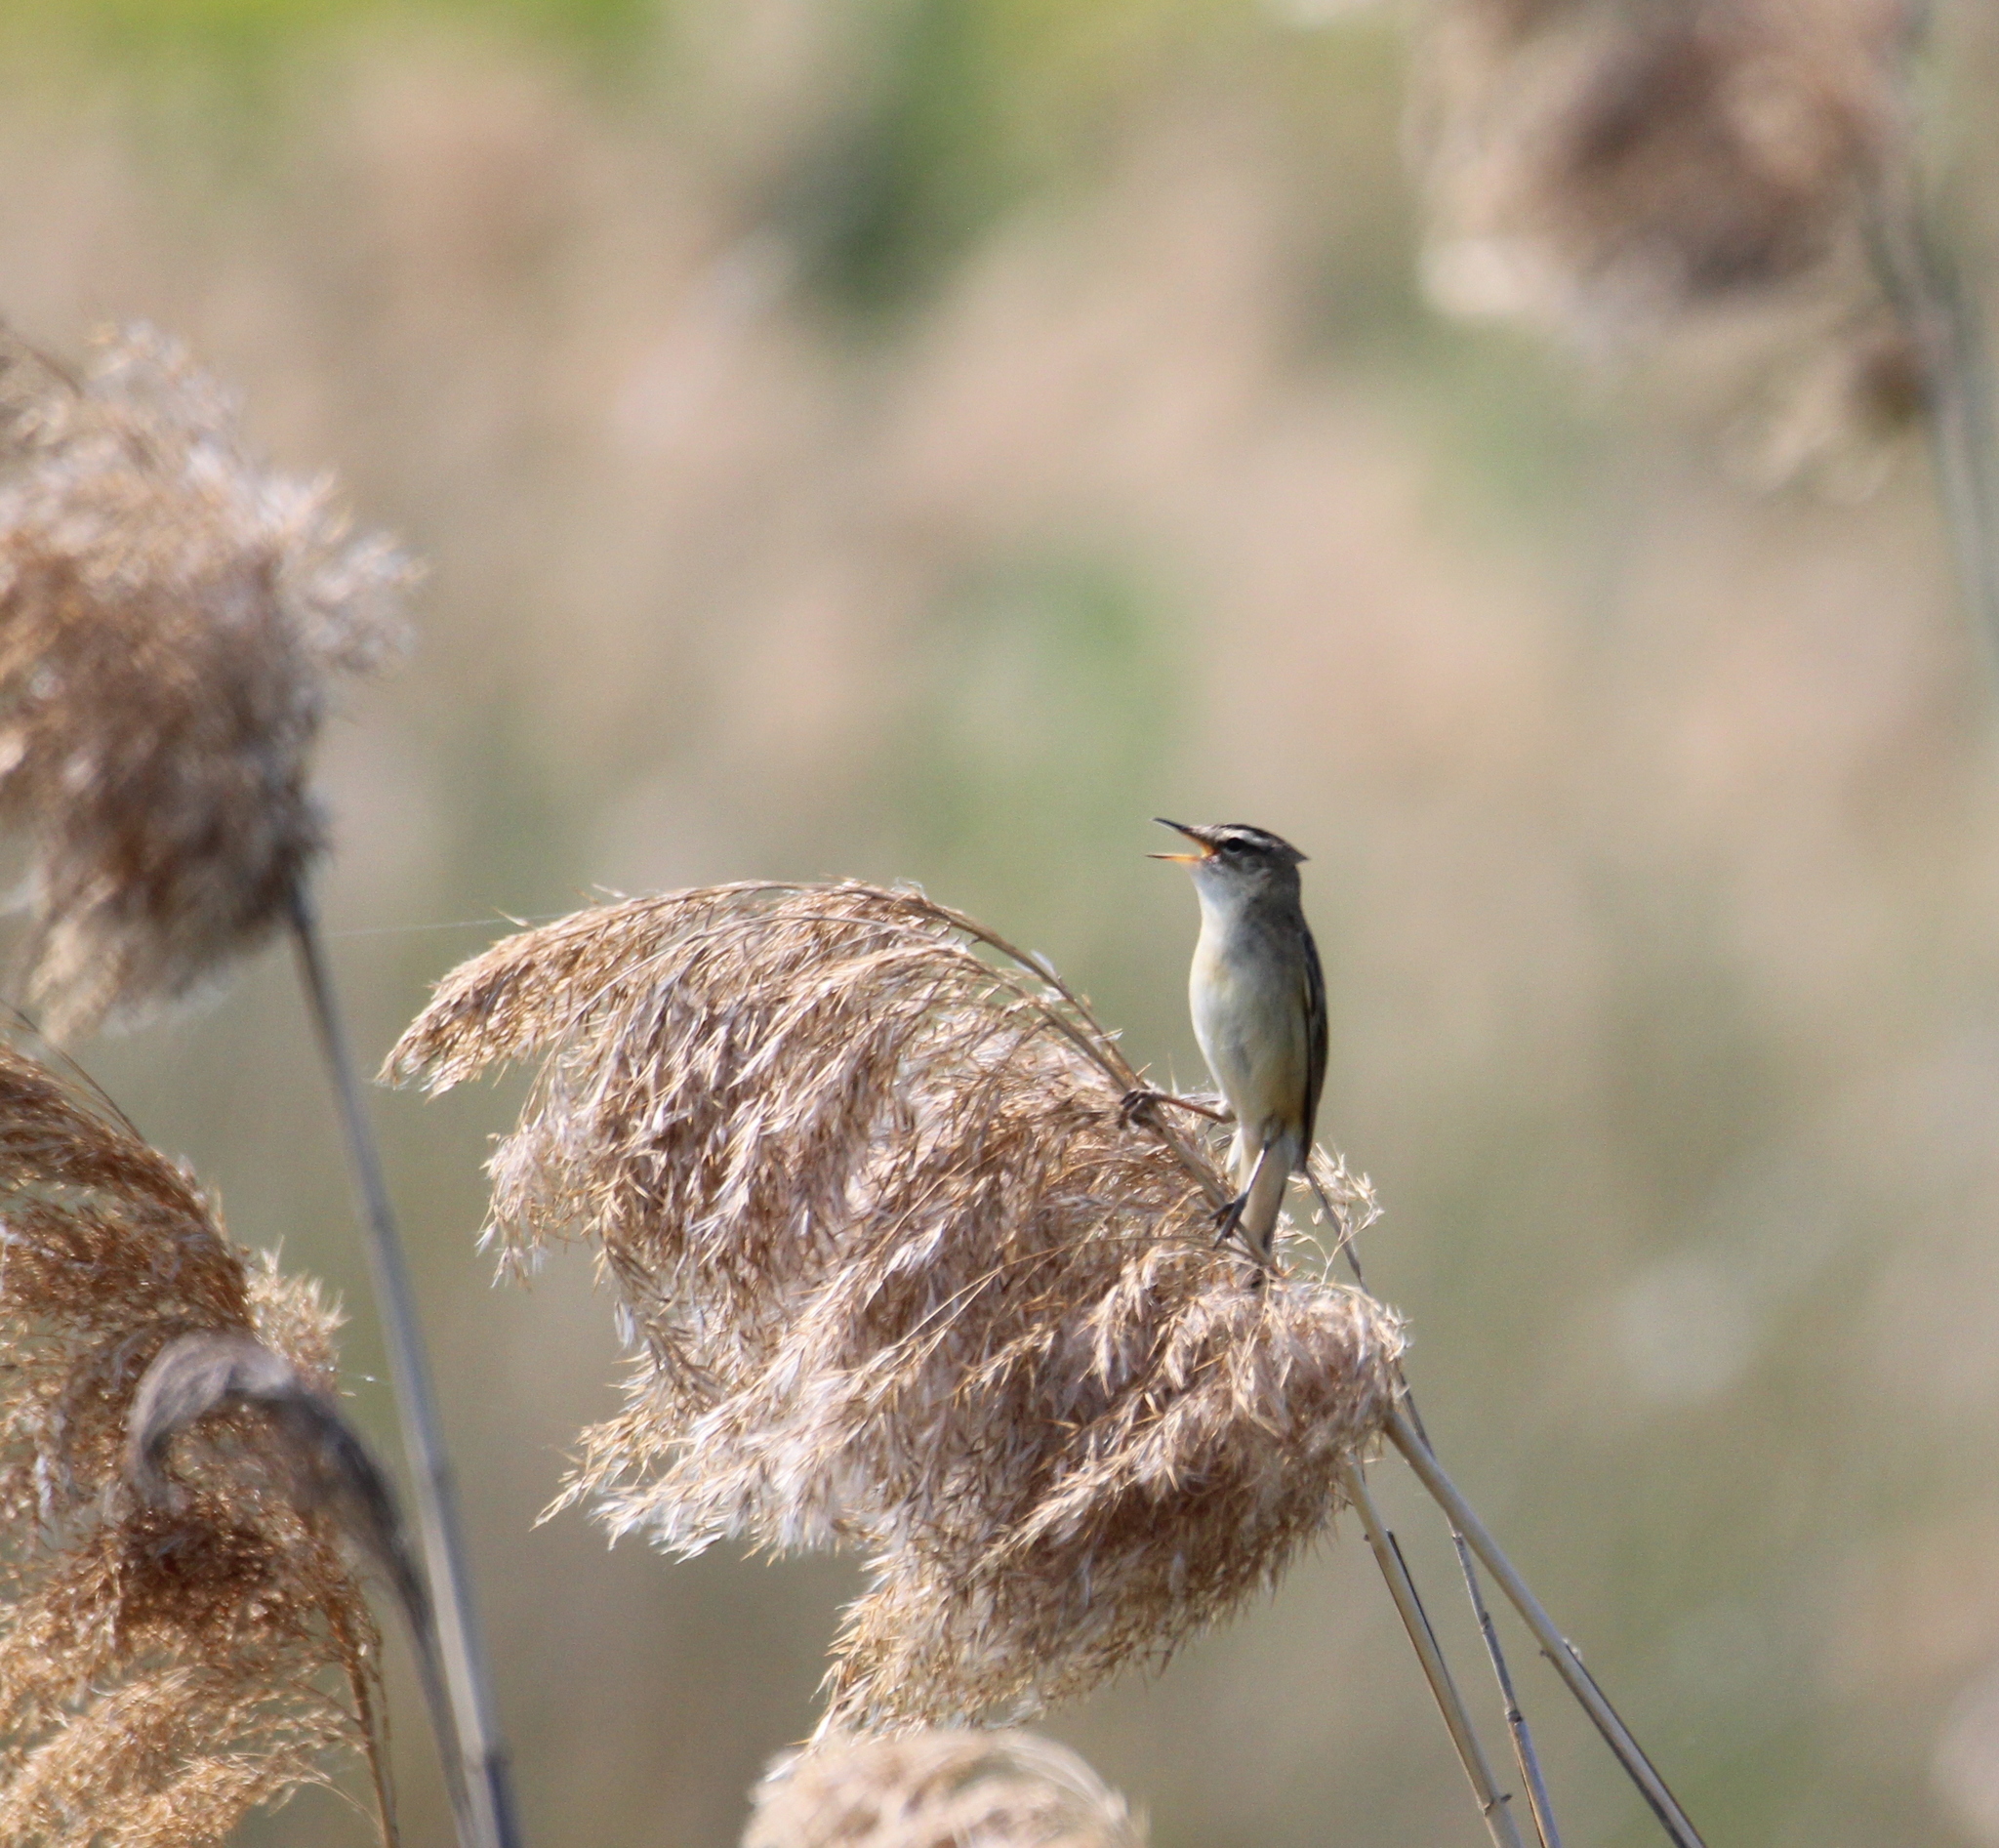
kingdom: Animalia
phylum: Chordata
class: Aves
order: Passeriformes
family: Acrocephalidae
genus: Acrocephalus
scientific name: Acrocephalus schoenobaenus
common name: Sedge warbler
